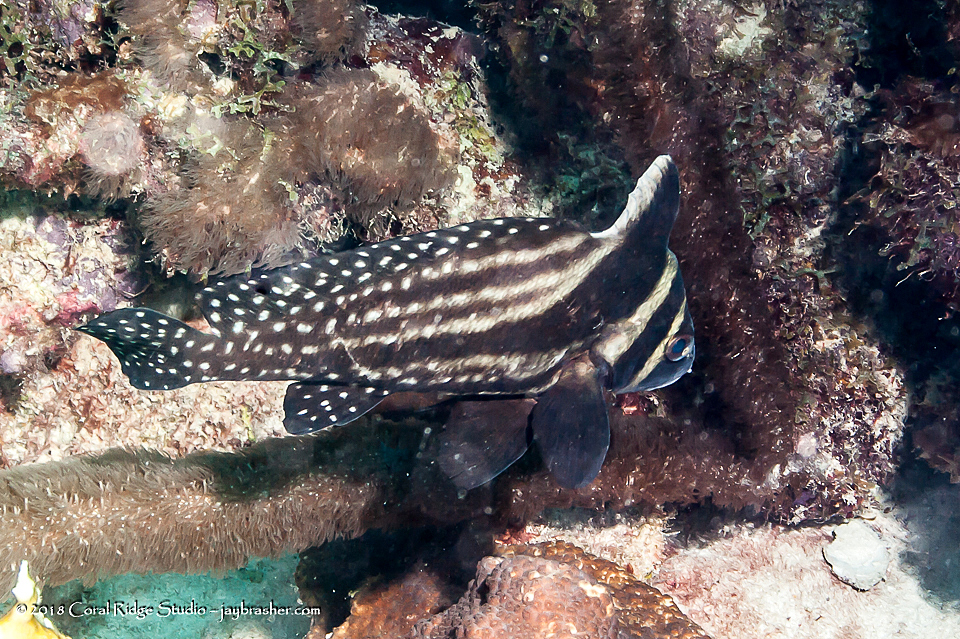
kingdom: Animalia
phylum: Chordata
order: Perciformes
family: Sciaenidae
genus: Equetus
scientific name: Equetus punctatus
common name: Spotted drum
